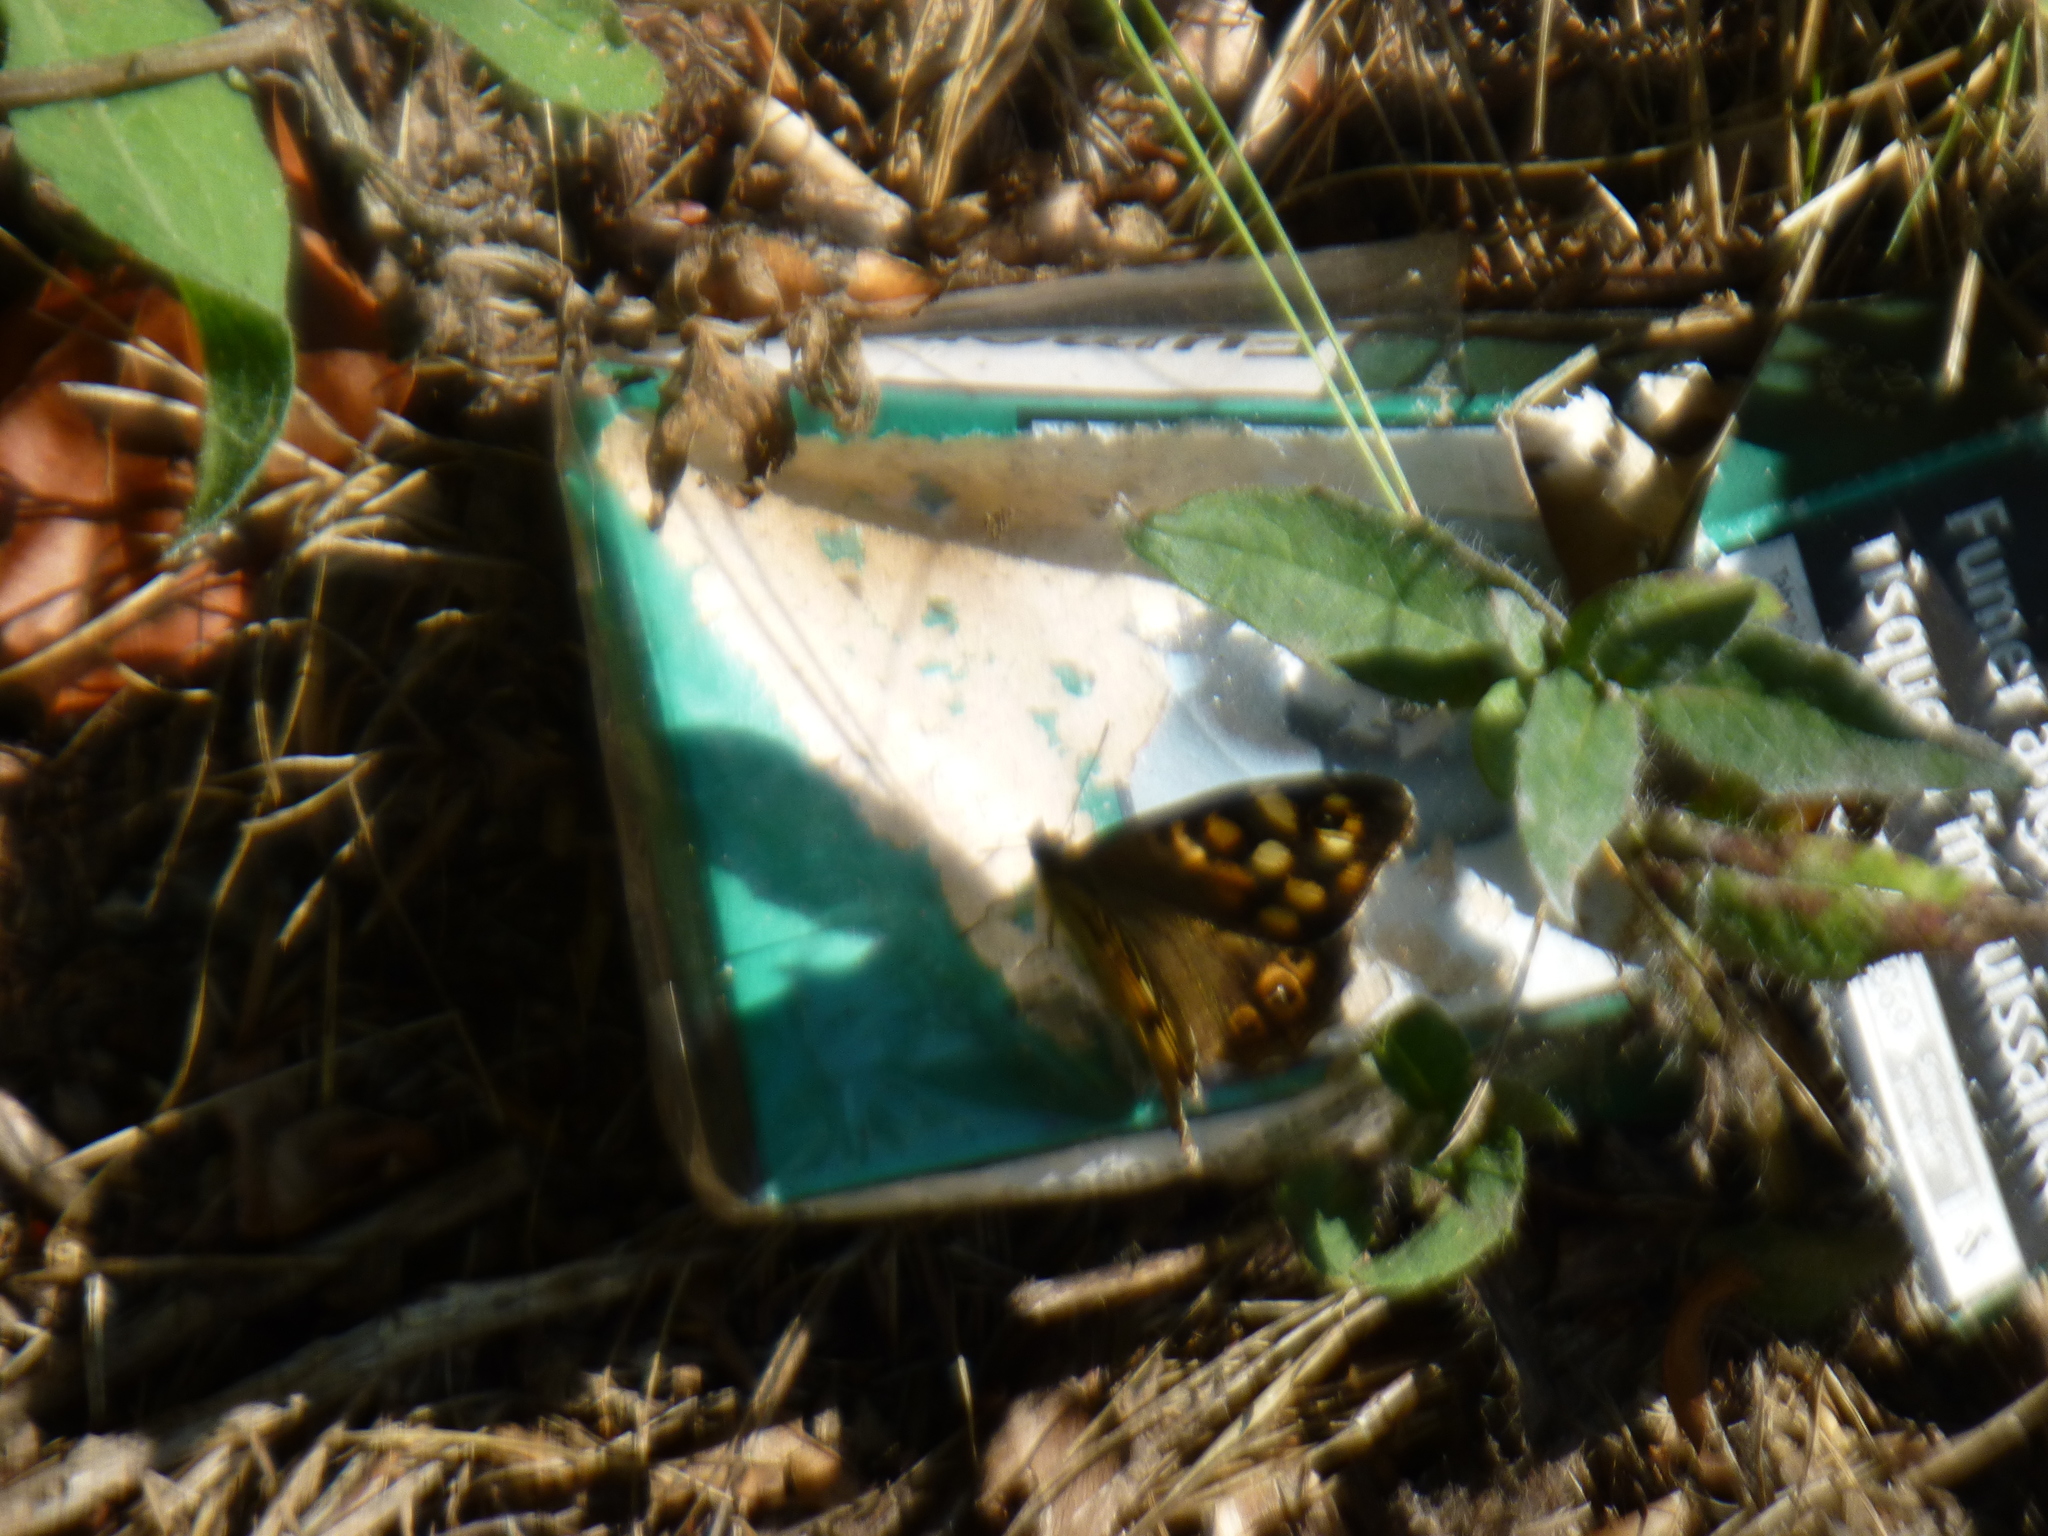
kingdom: Animalia
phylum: Arthropoda
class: Insecta
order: Lepidoptera
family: Nymphalidae
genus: Pararge
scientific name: Pararge aegeria
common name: Speckled wood
